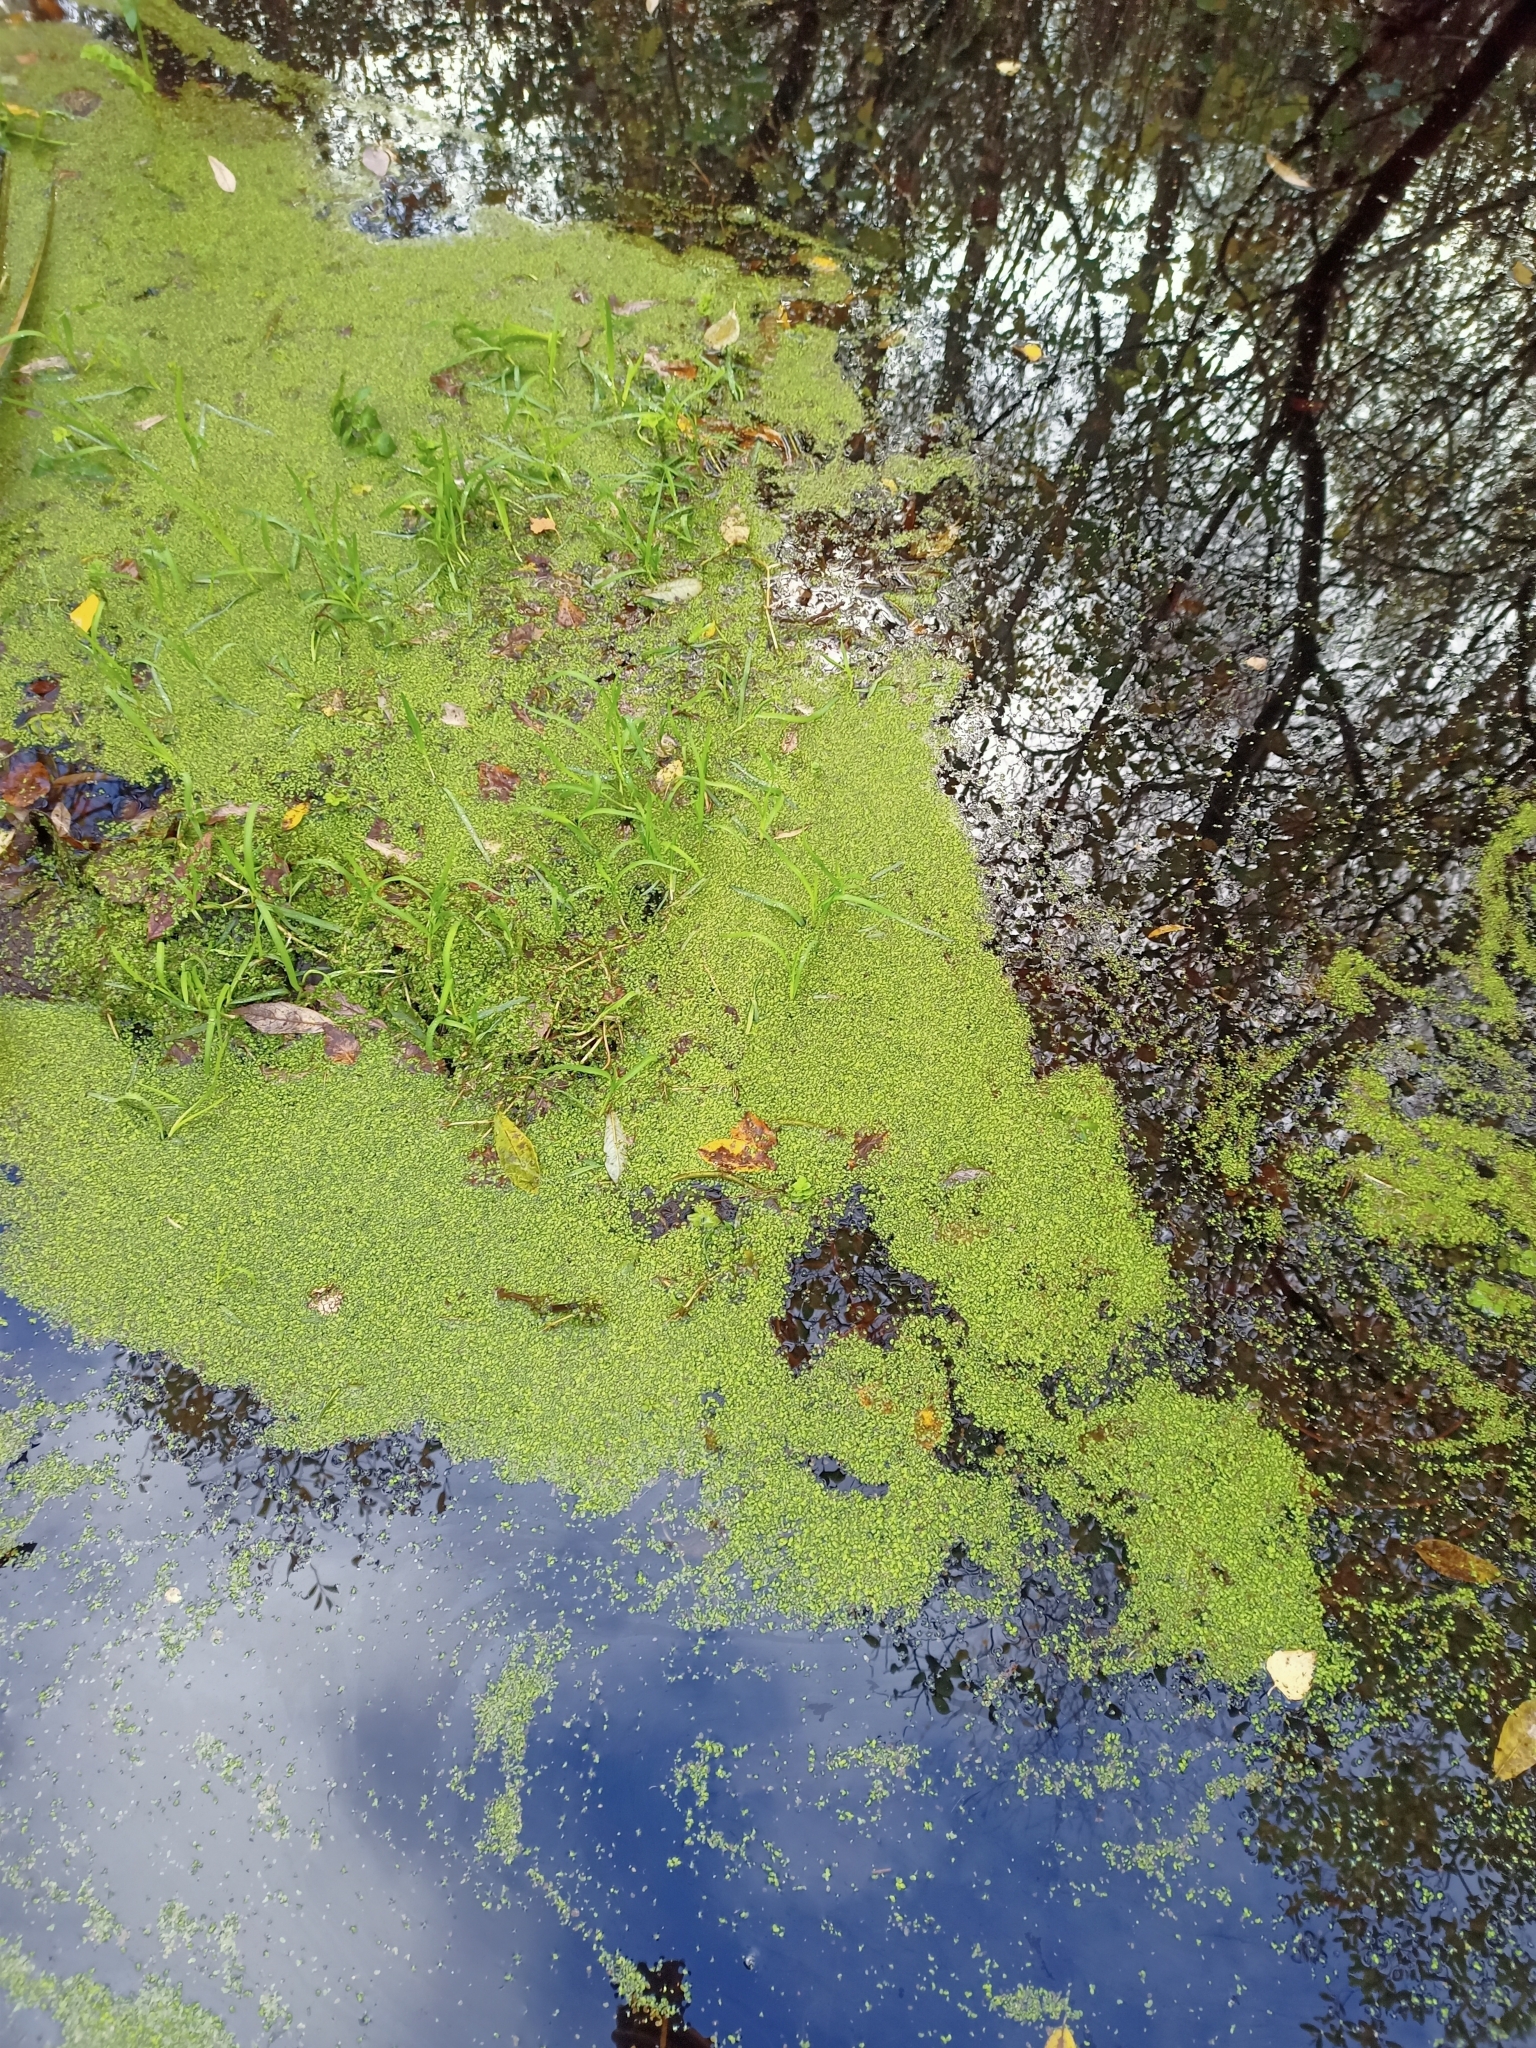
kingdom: Plantae
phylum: Tracheophyta
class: Liliopsida
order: Alismatales
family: Araceae
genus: Lemna
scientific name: Lemna minor
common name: Common duckweed
